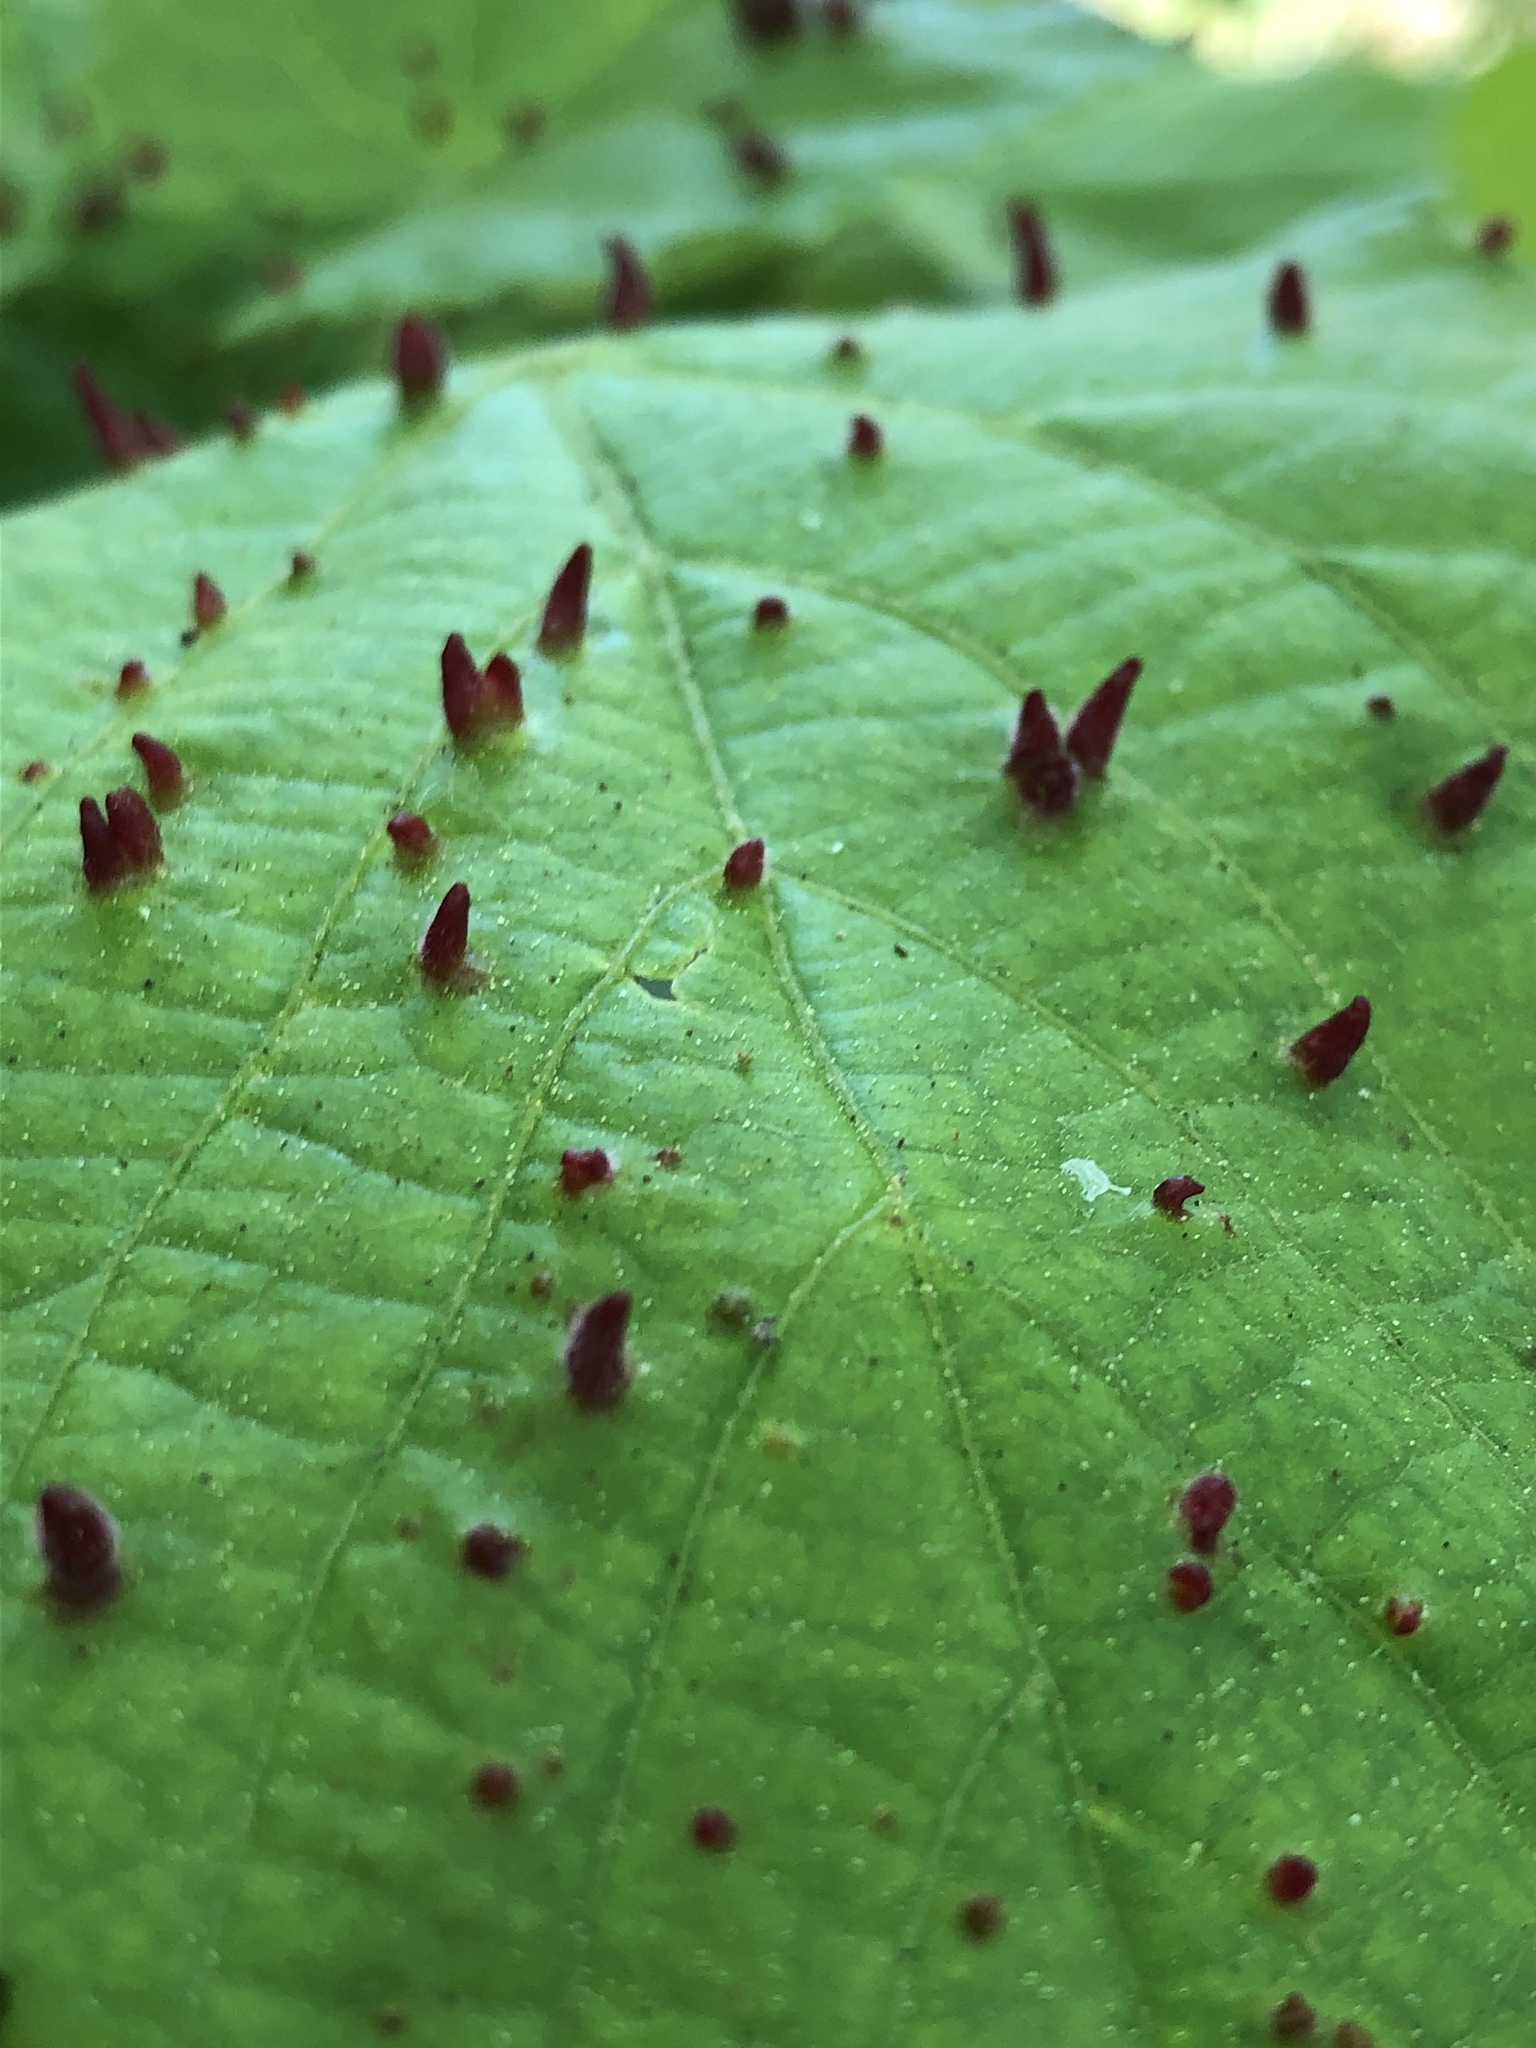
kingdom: Animalia
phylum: Arthropoda
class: Arachnida
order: Trombidiformes
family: Eriophyidae
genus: Eriophyes
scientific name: Eriophyes tiliae
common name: Red nail gall mite
